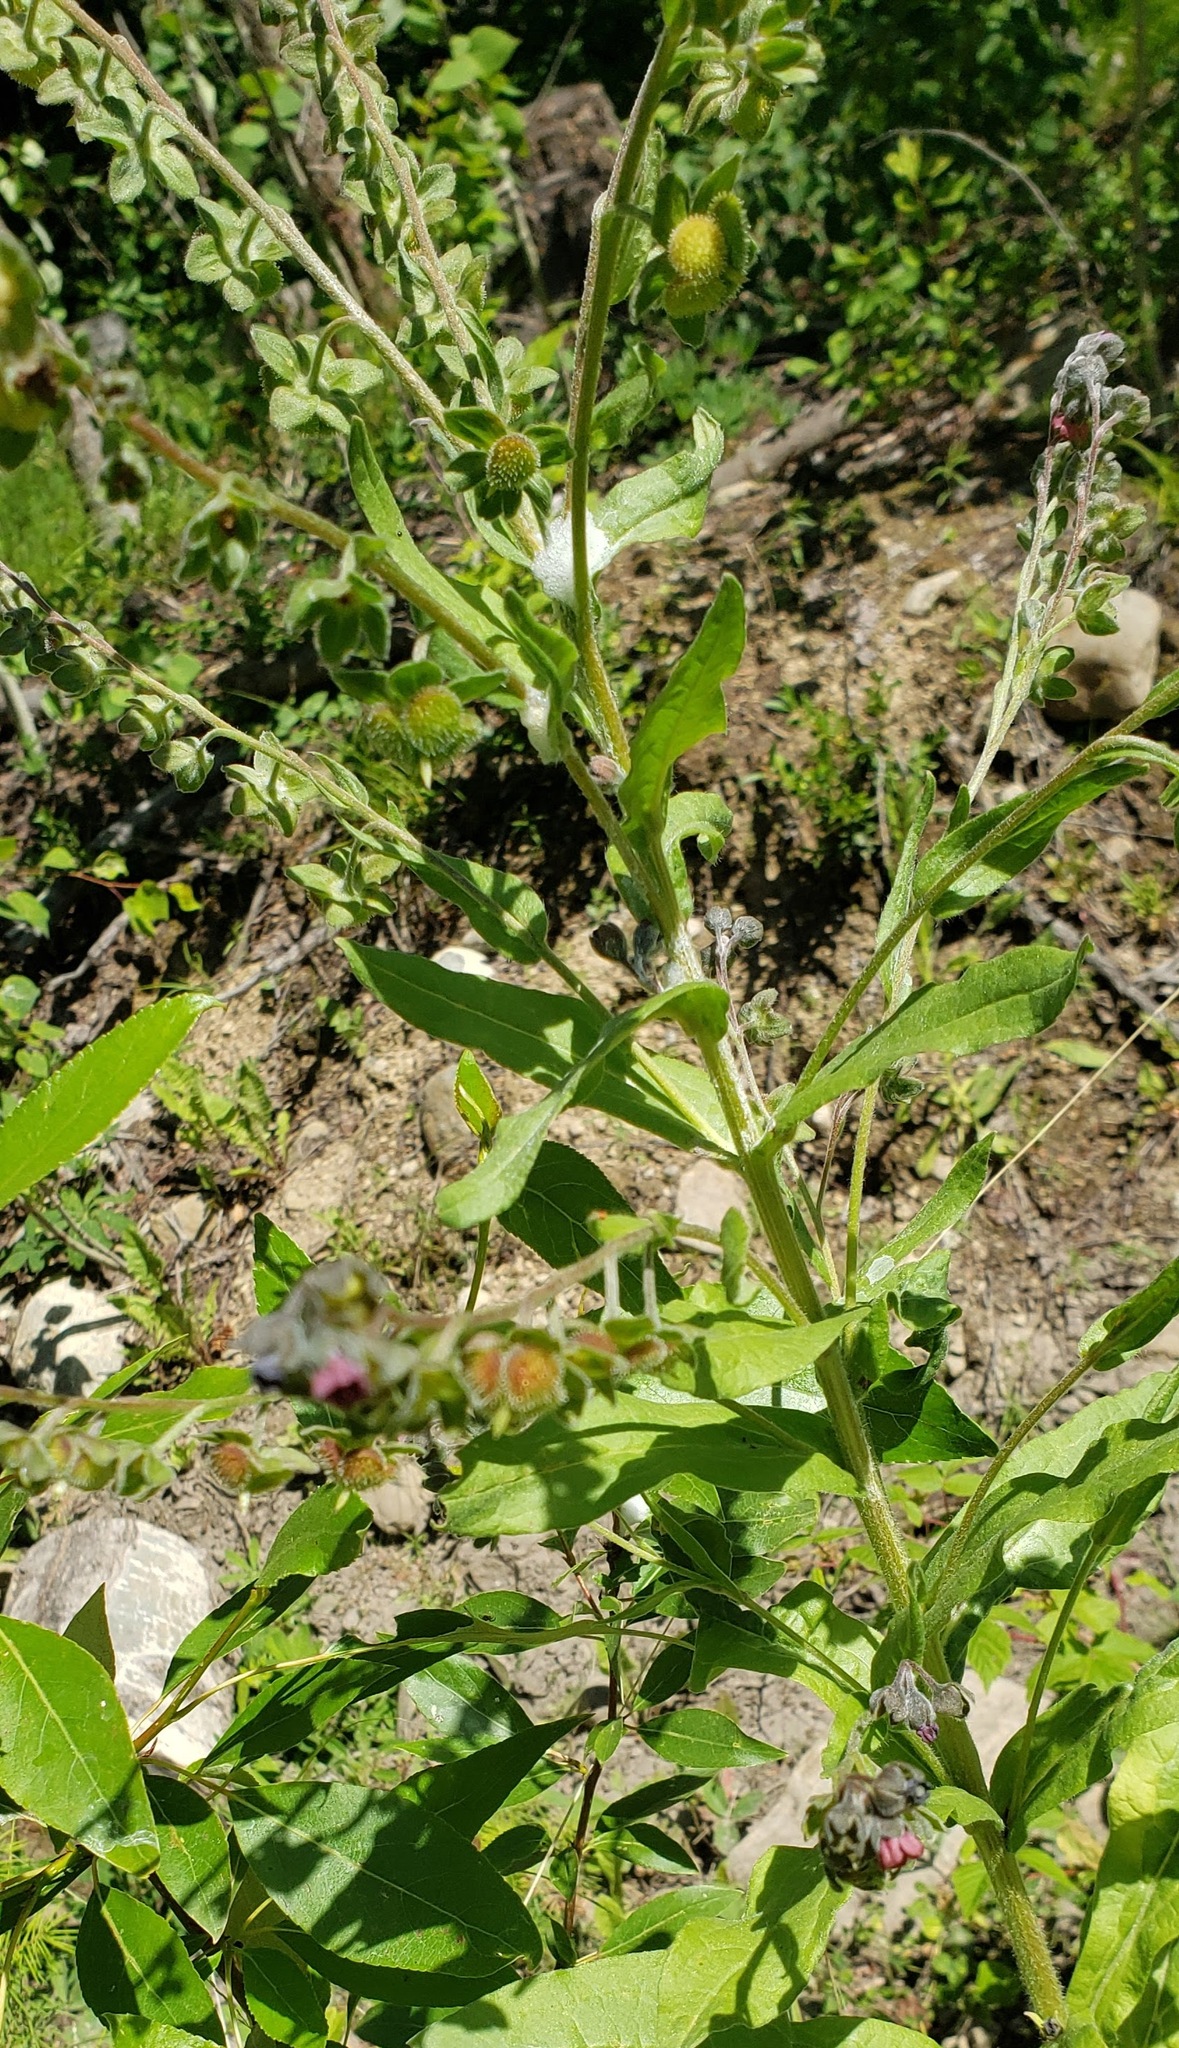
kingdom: Plantae
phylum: Tracheophyta
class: Magnoliopsida
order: Boraginales
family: Boraginaceae
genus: Cynoglossum
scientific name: Cynoglossum officinale
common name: Hound's-tongue
